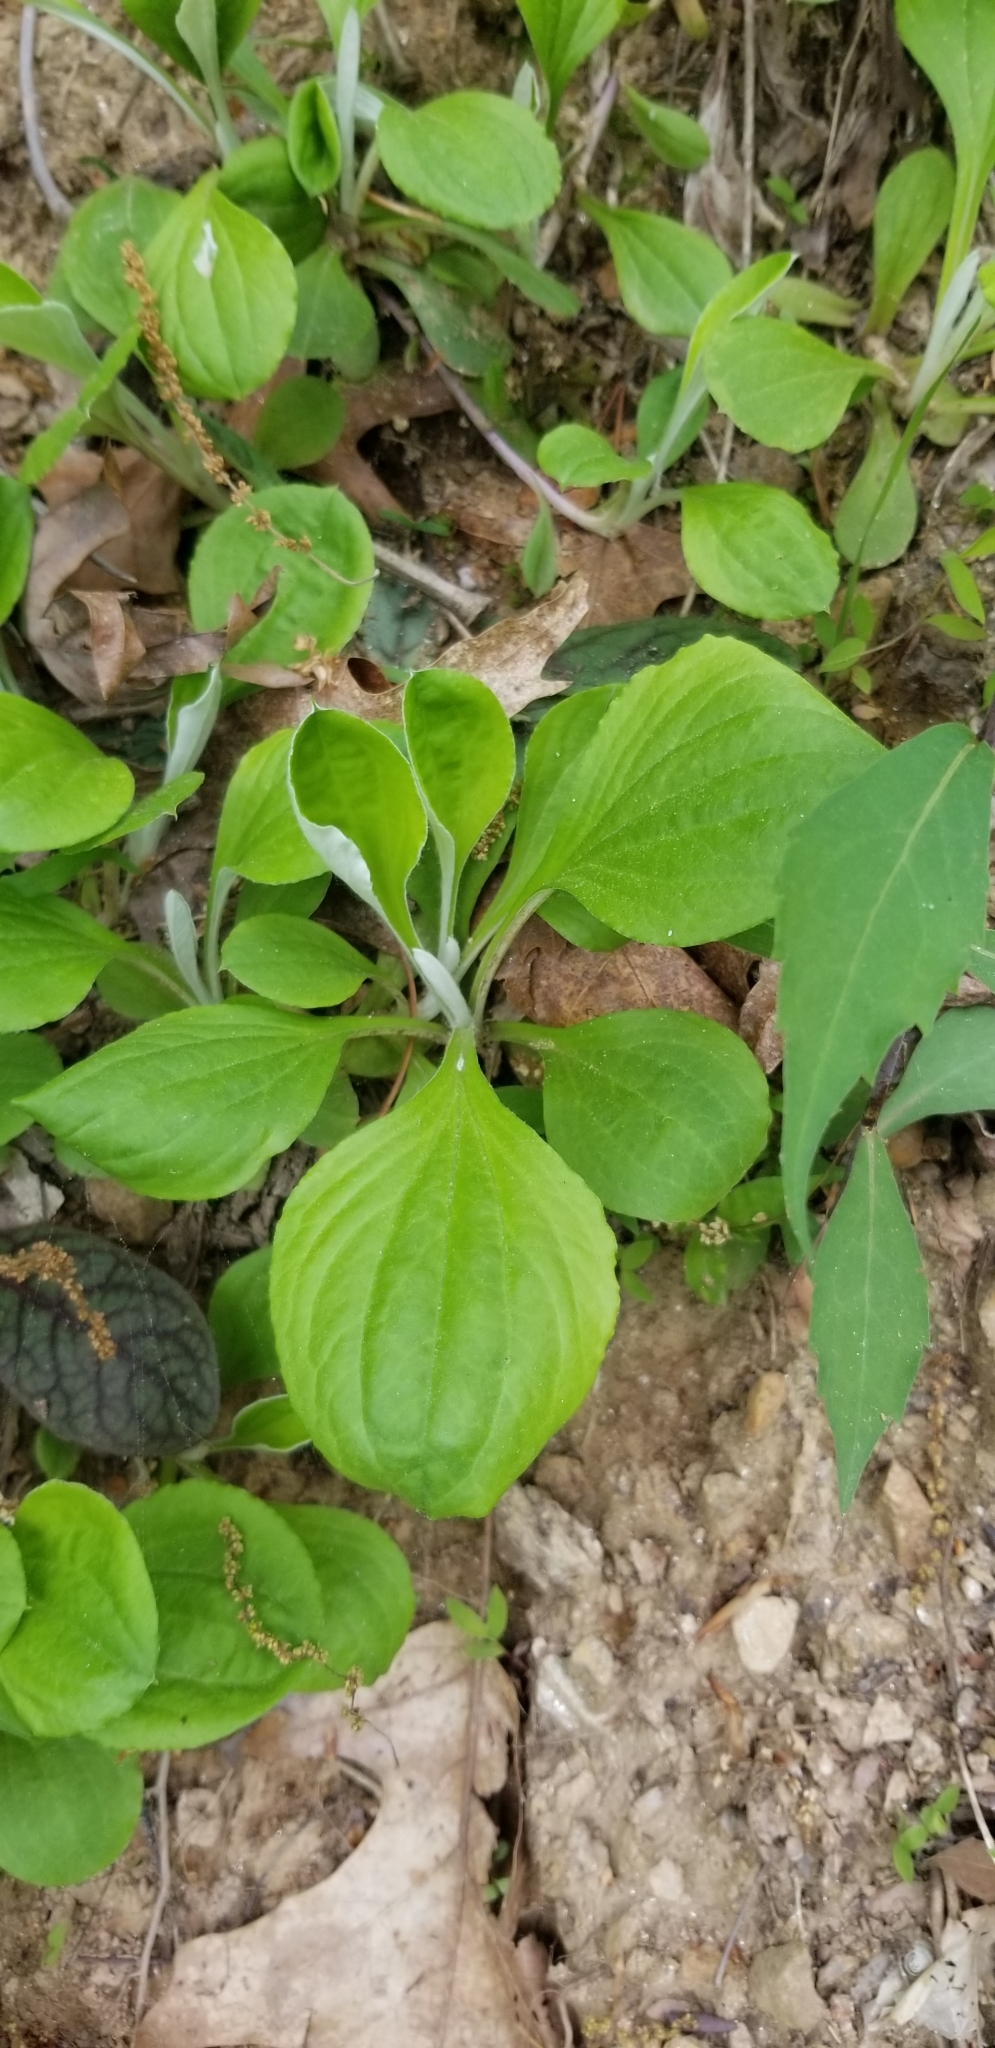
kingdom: Plantae
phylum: Tracheophyta
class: Magnoliopsida
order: Asterales
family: Asteraceae
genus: Antennaria
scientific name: Antennaria parlinii
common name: Parlin's pussytoes
